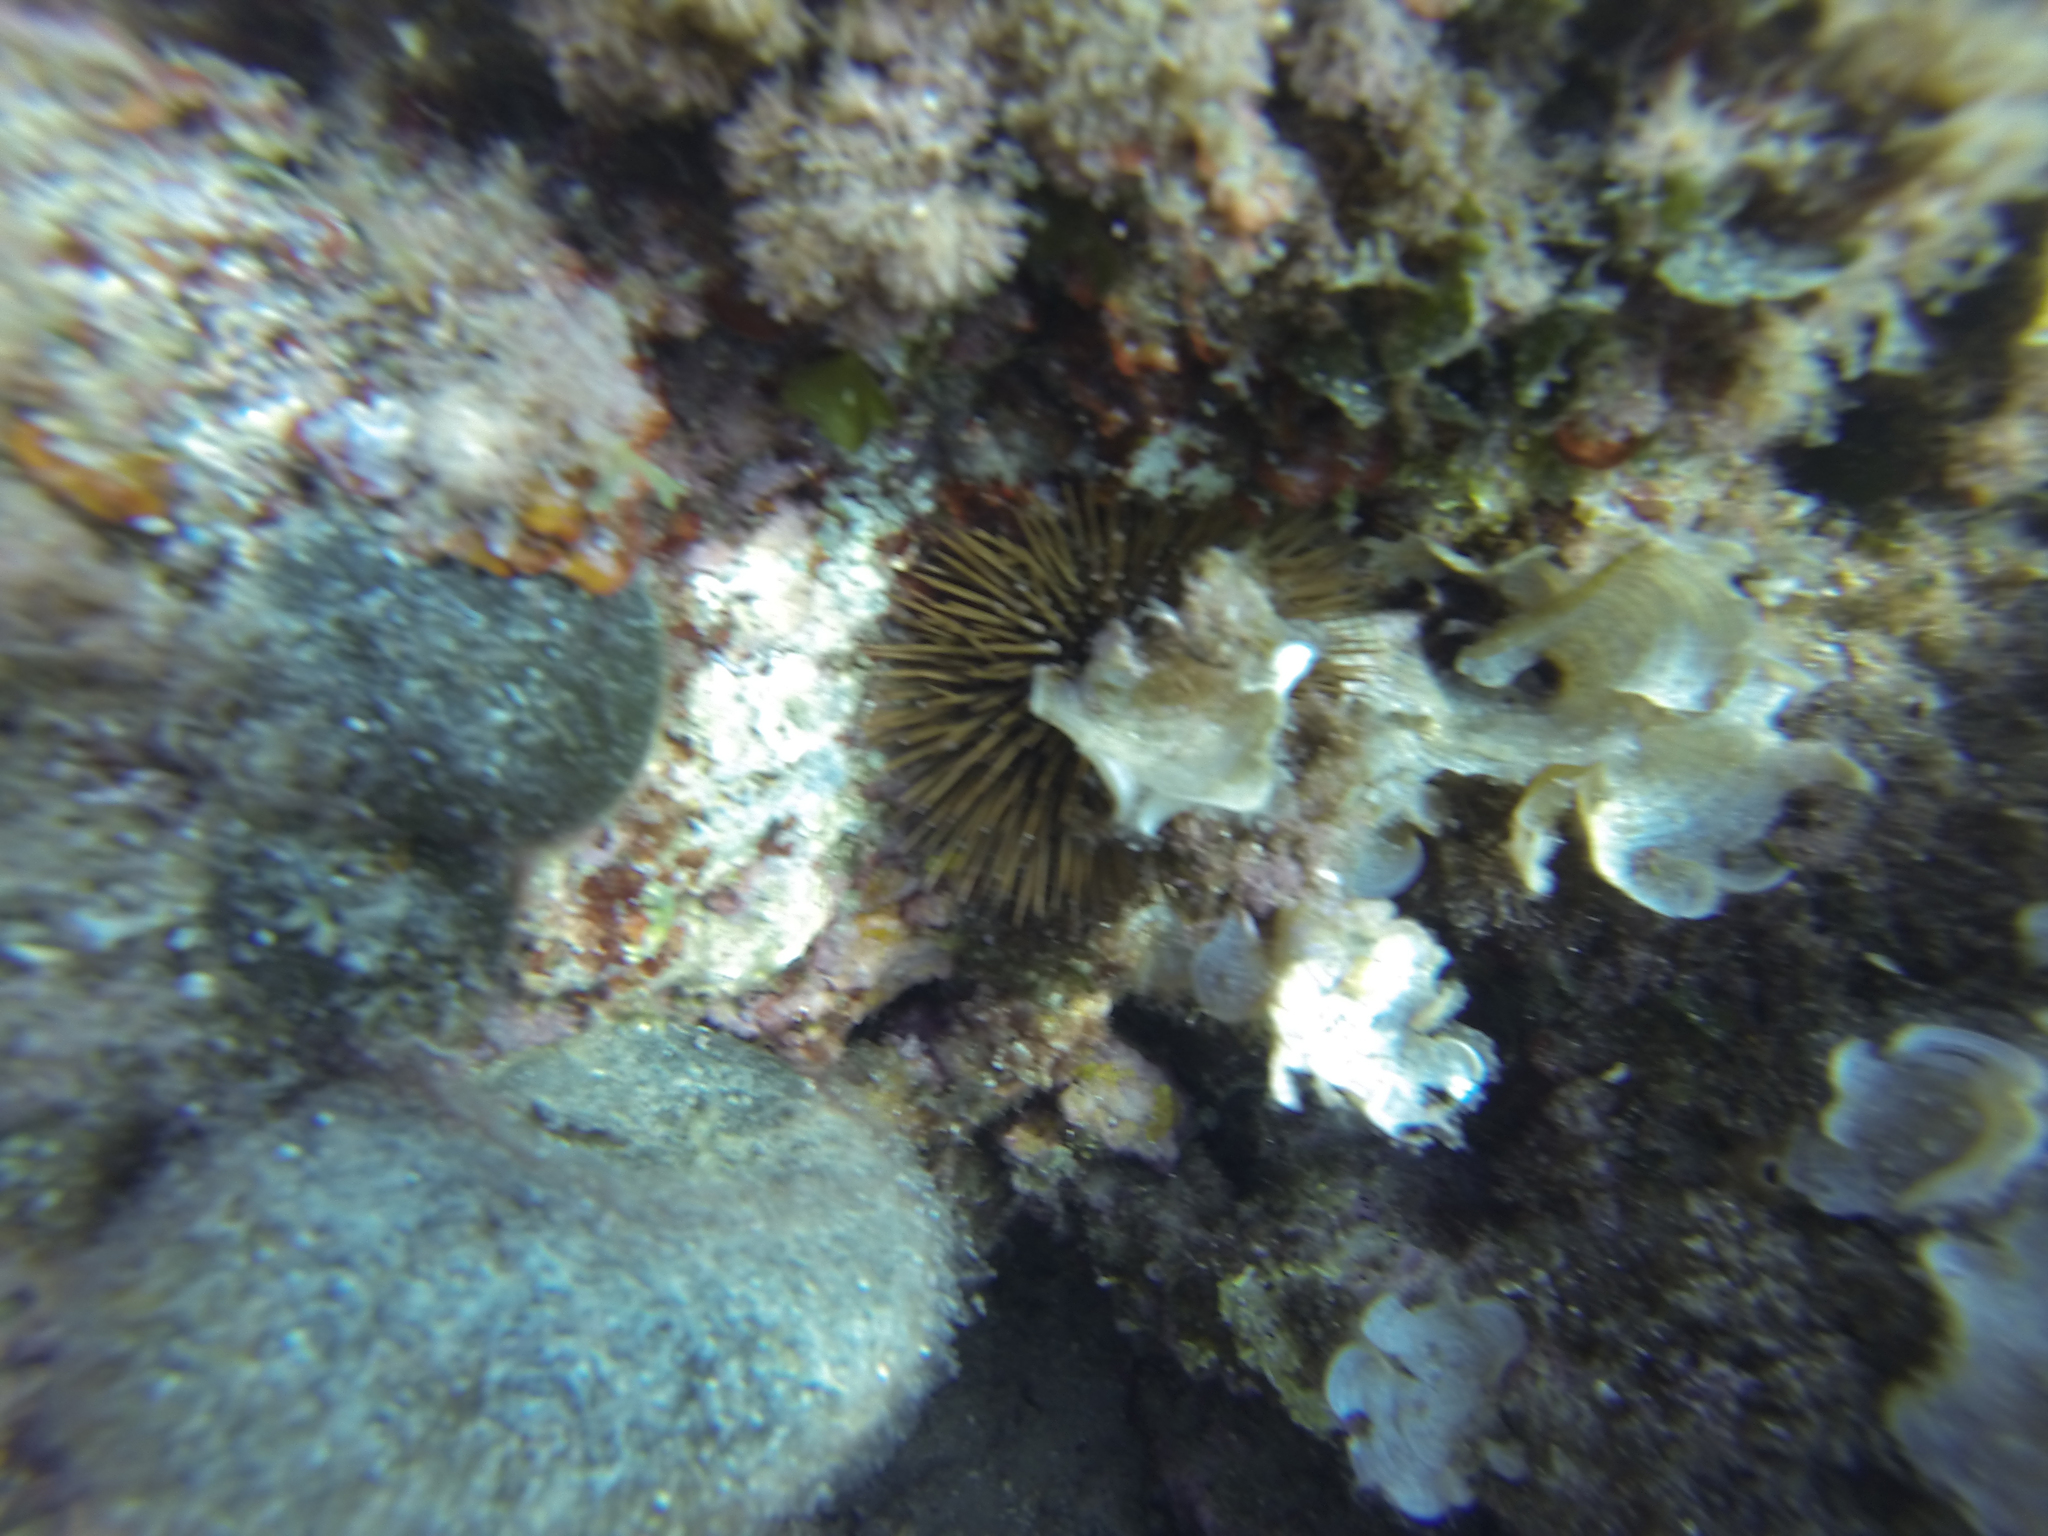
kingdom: Animalia
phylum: Echinodermata
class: Echinoidea
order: Camarodonta
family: Parechinidae
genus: Paracentrotus
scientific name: Paracentrotus lividus
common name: Purple sea urchin
